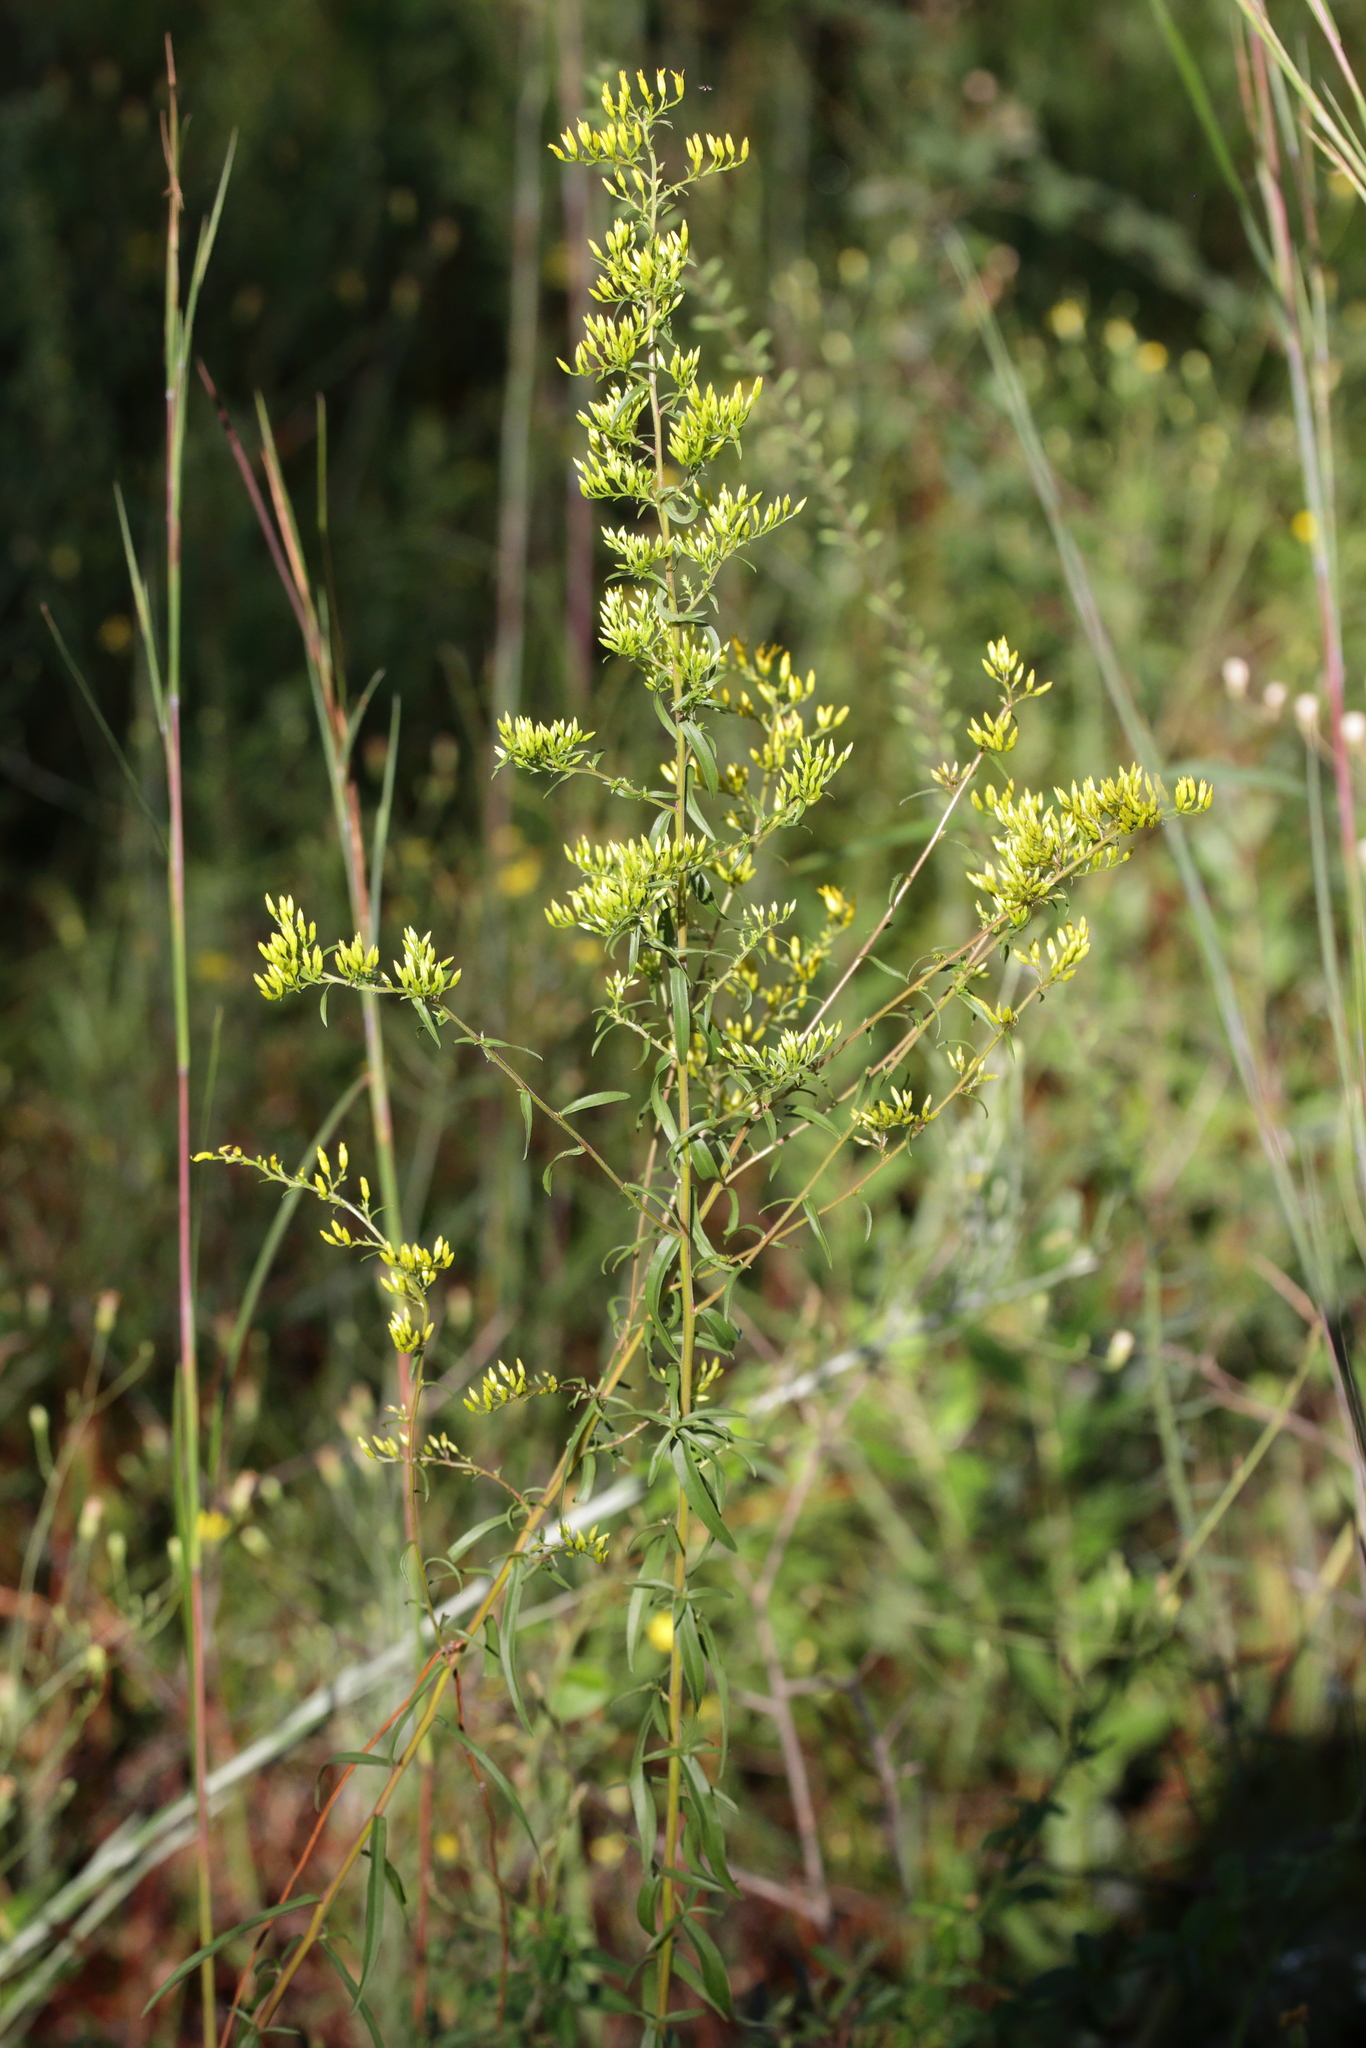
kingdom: Plantae
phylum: Tracheophyta
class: Magnoliopsida
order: Asterales
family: Asteraceae
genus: Solidago
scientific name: Solidago odora
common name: Anise-scented goldenrod
